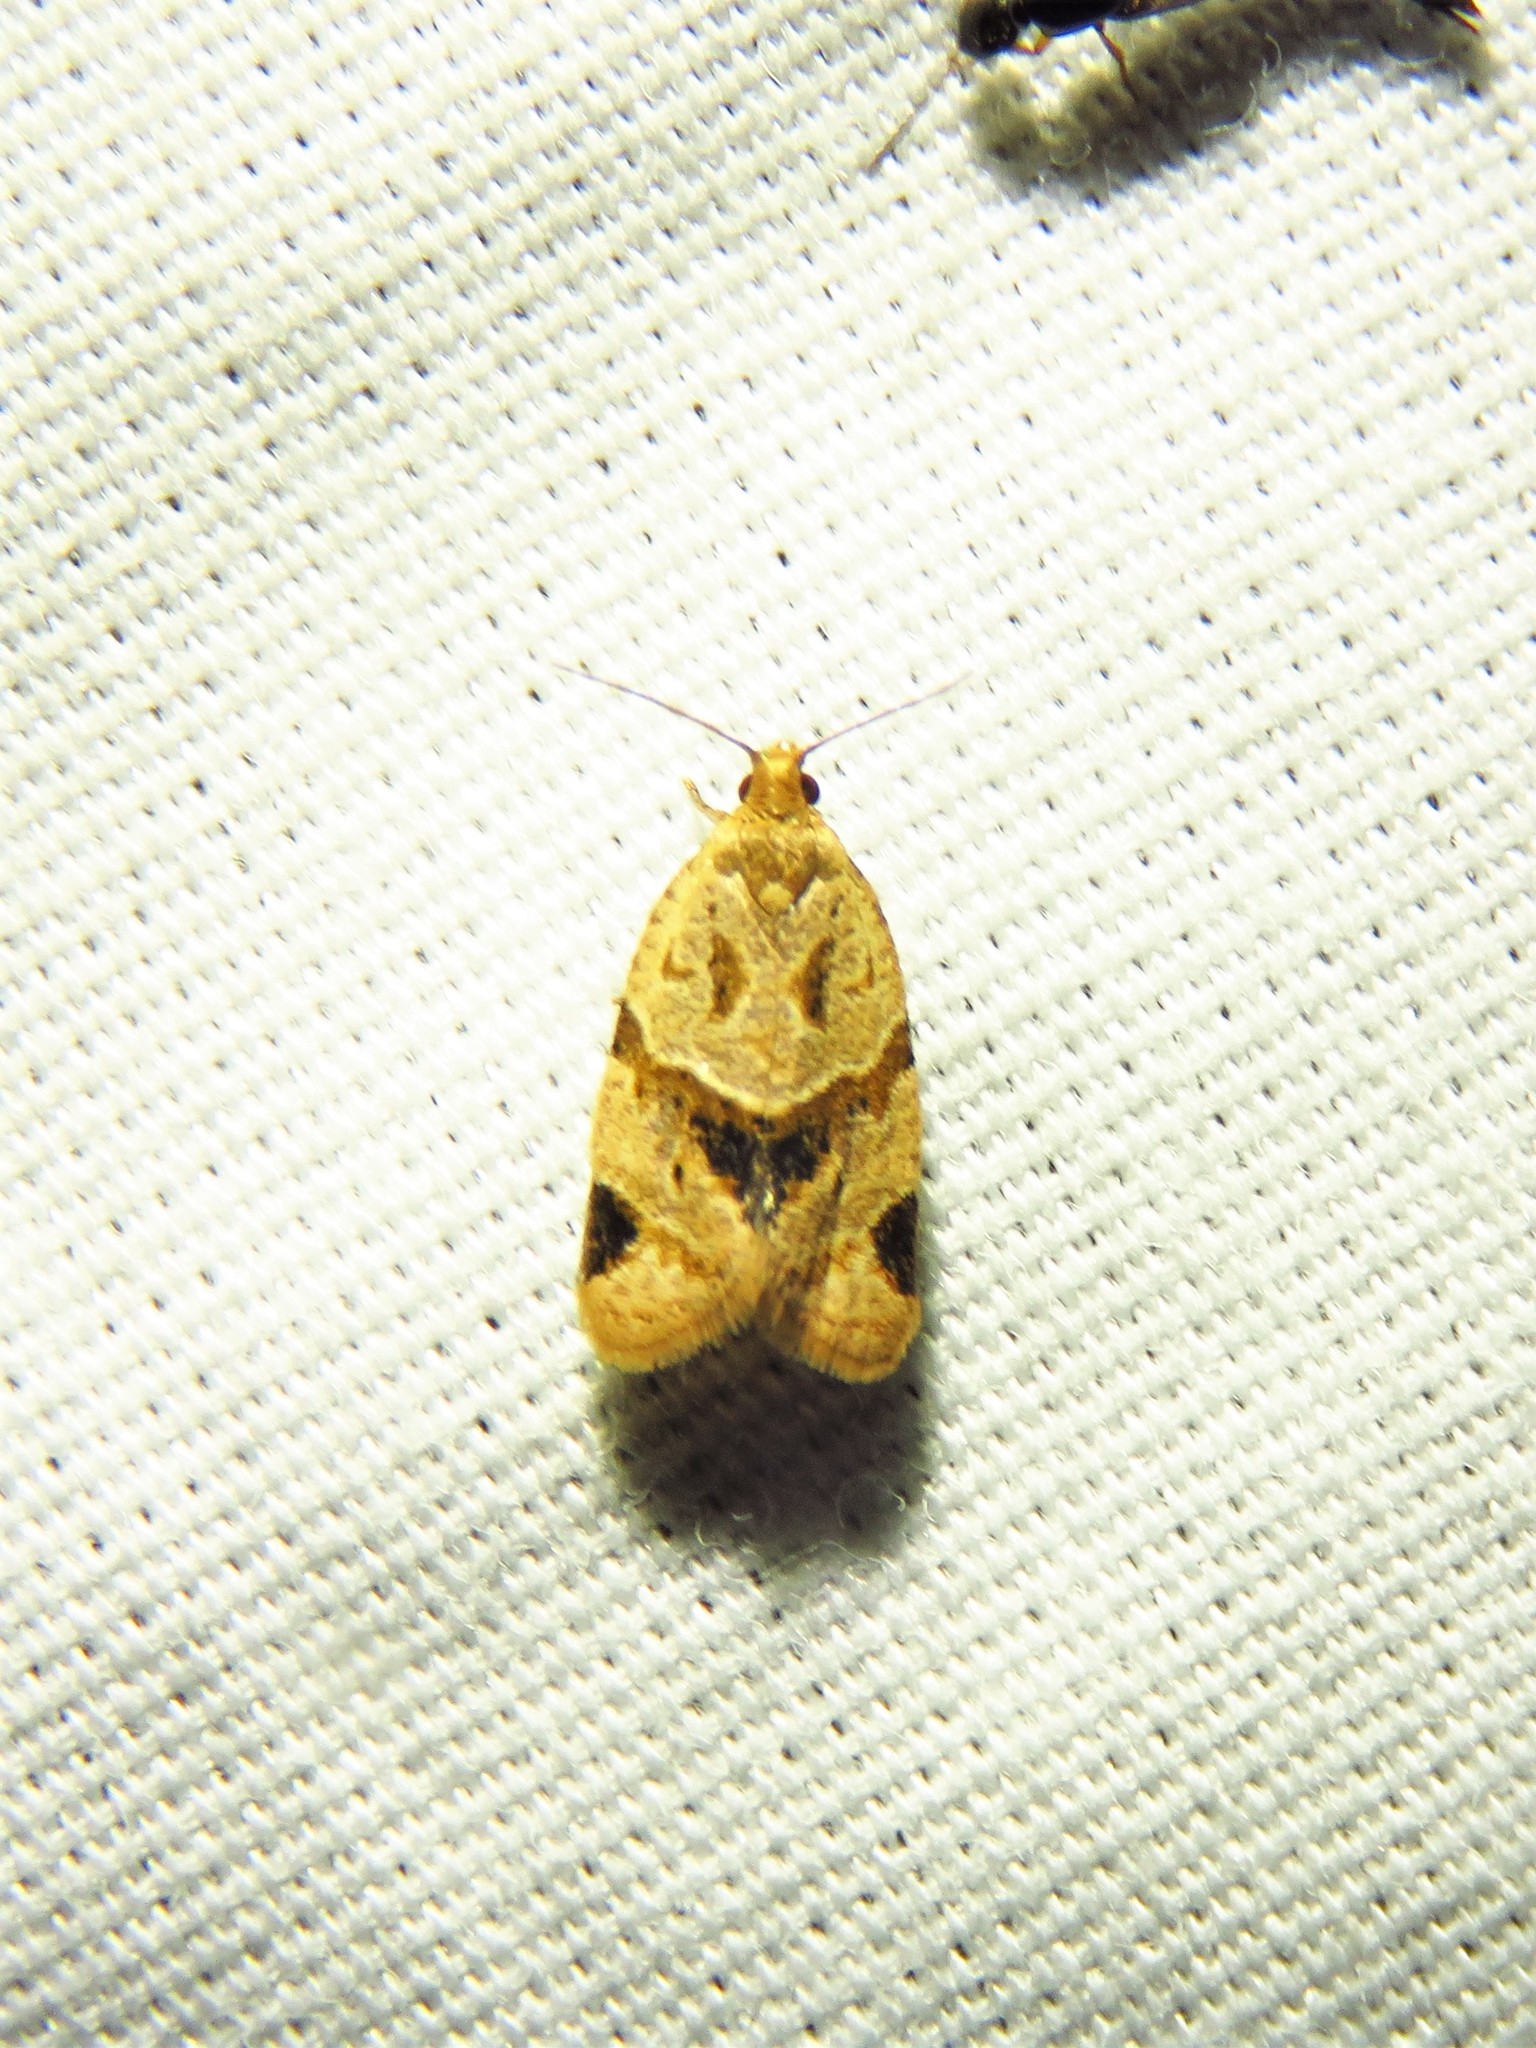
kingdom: Animalia
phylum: Arthropoda
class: Insecta
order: Lepidoptera
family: Tortricidae
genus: Clepsis
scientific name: Clepsis peritana
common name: Garden tortrix
